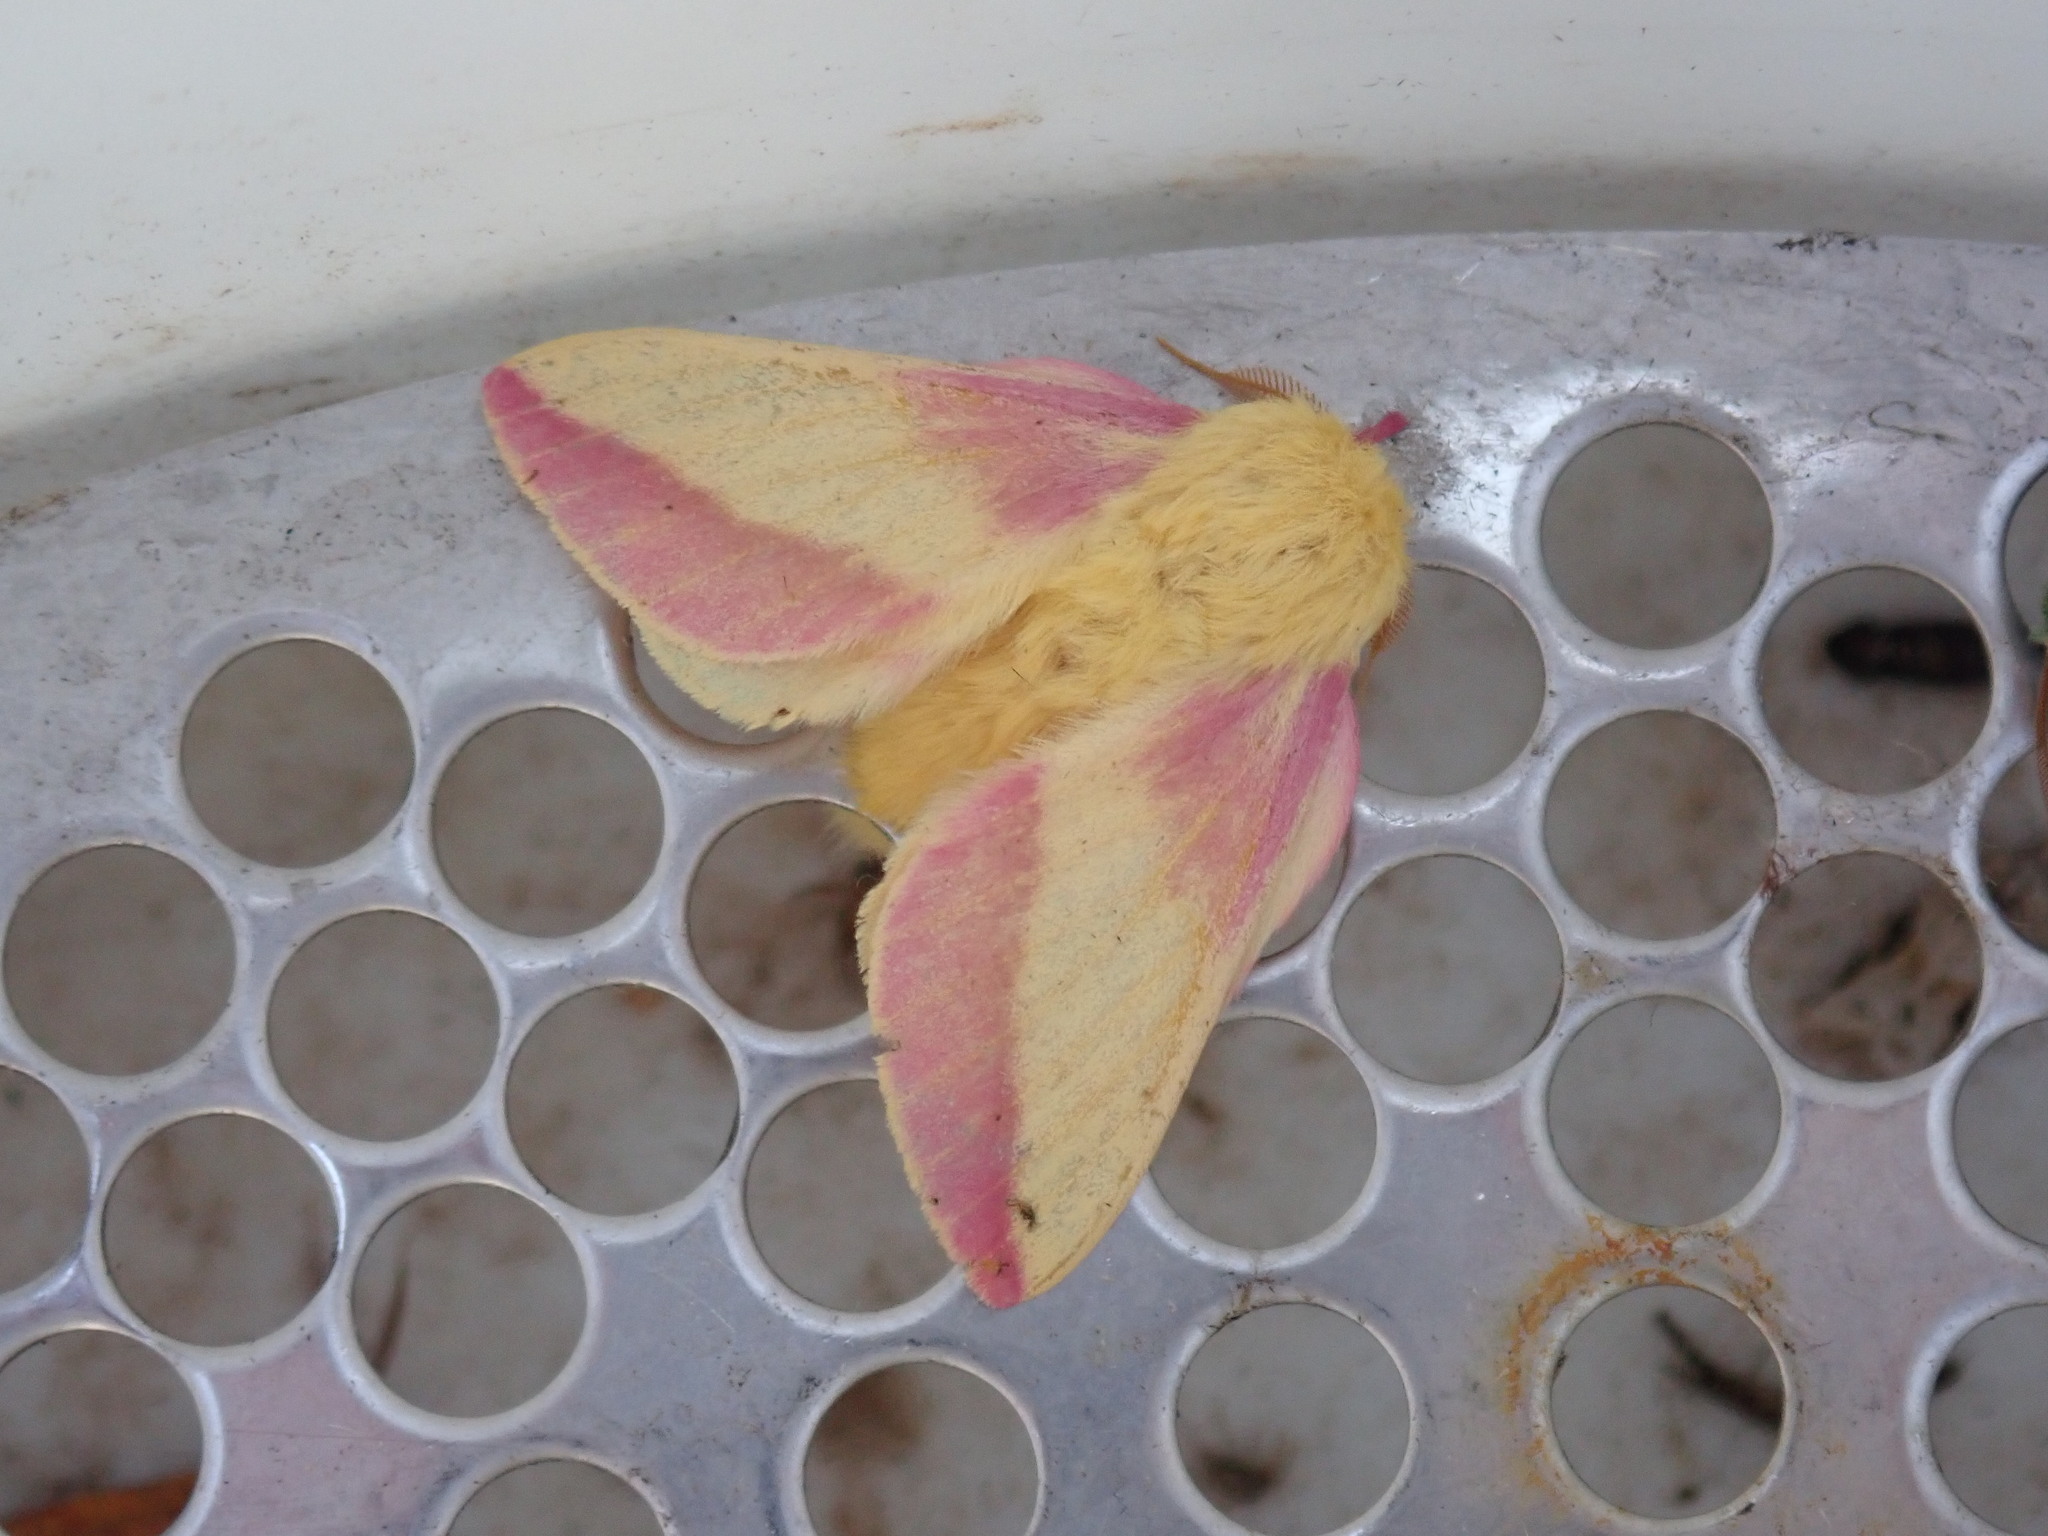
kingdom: Animalia
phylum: Arthropoda
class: Insecta
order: Lepidoptera
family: Saturniidae
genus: Dryocampa
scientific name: Dryocampa rubicunda
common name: Rosy maple moth
